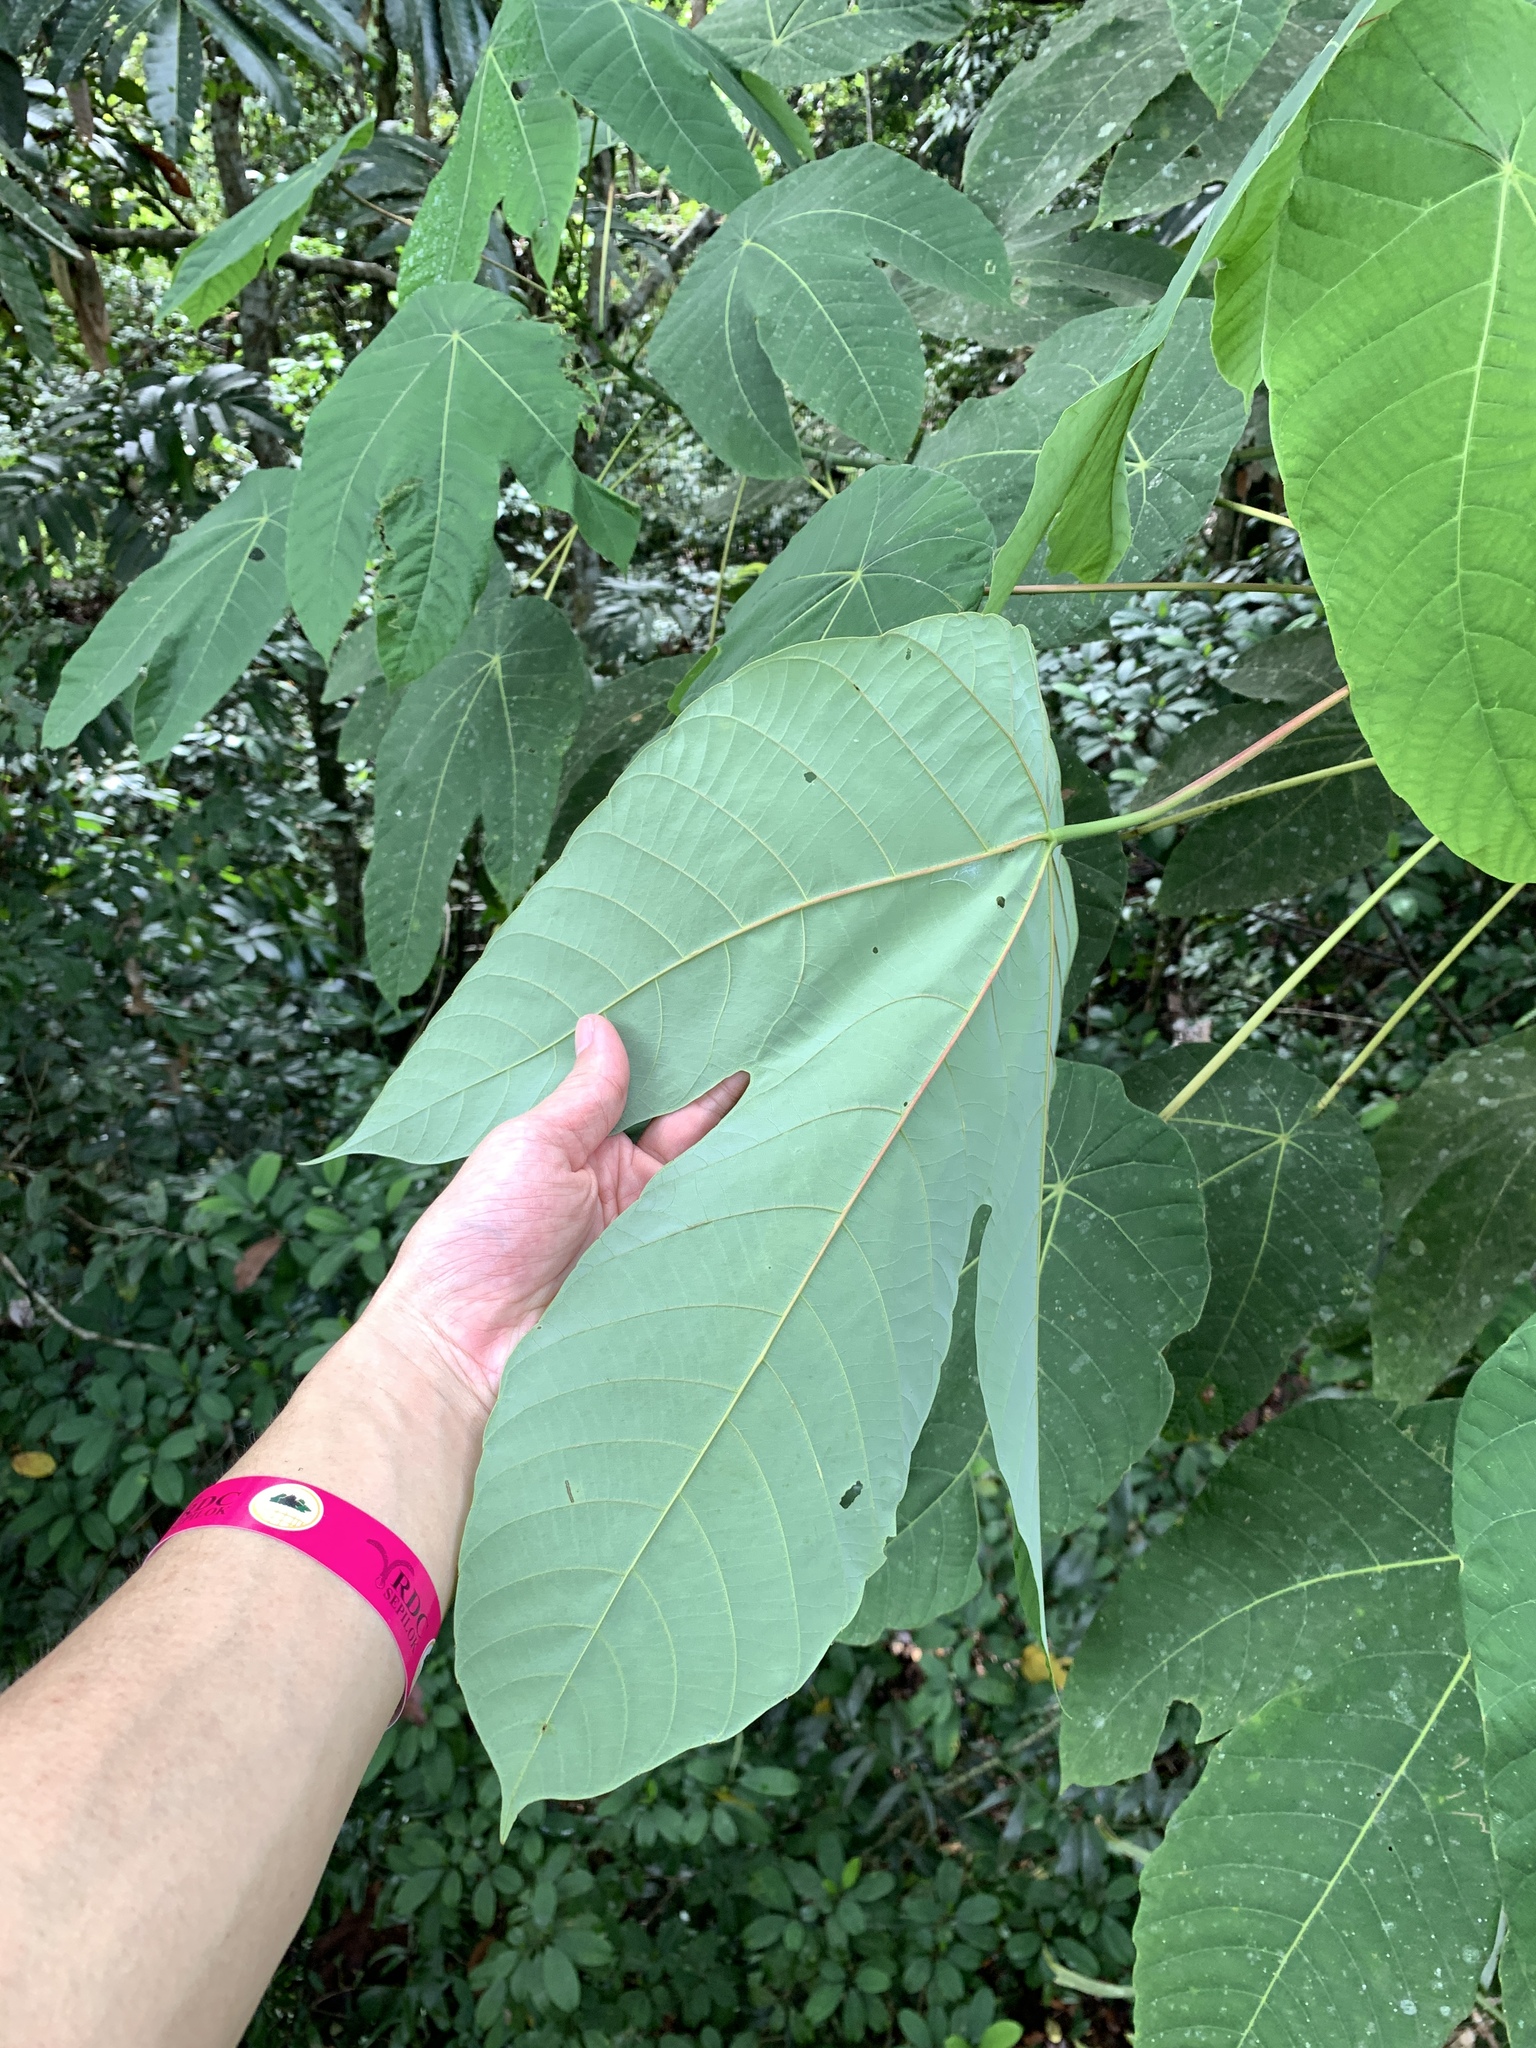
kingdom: Plantae
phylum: Tracheophyta
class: Magnoliopsida
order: Malpighiales
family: Euphorbiaceae
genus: Macaranga
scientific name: Macaranga triloba
